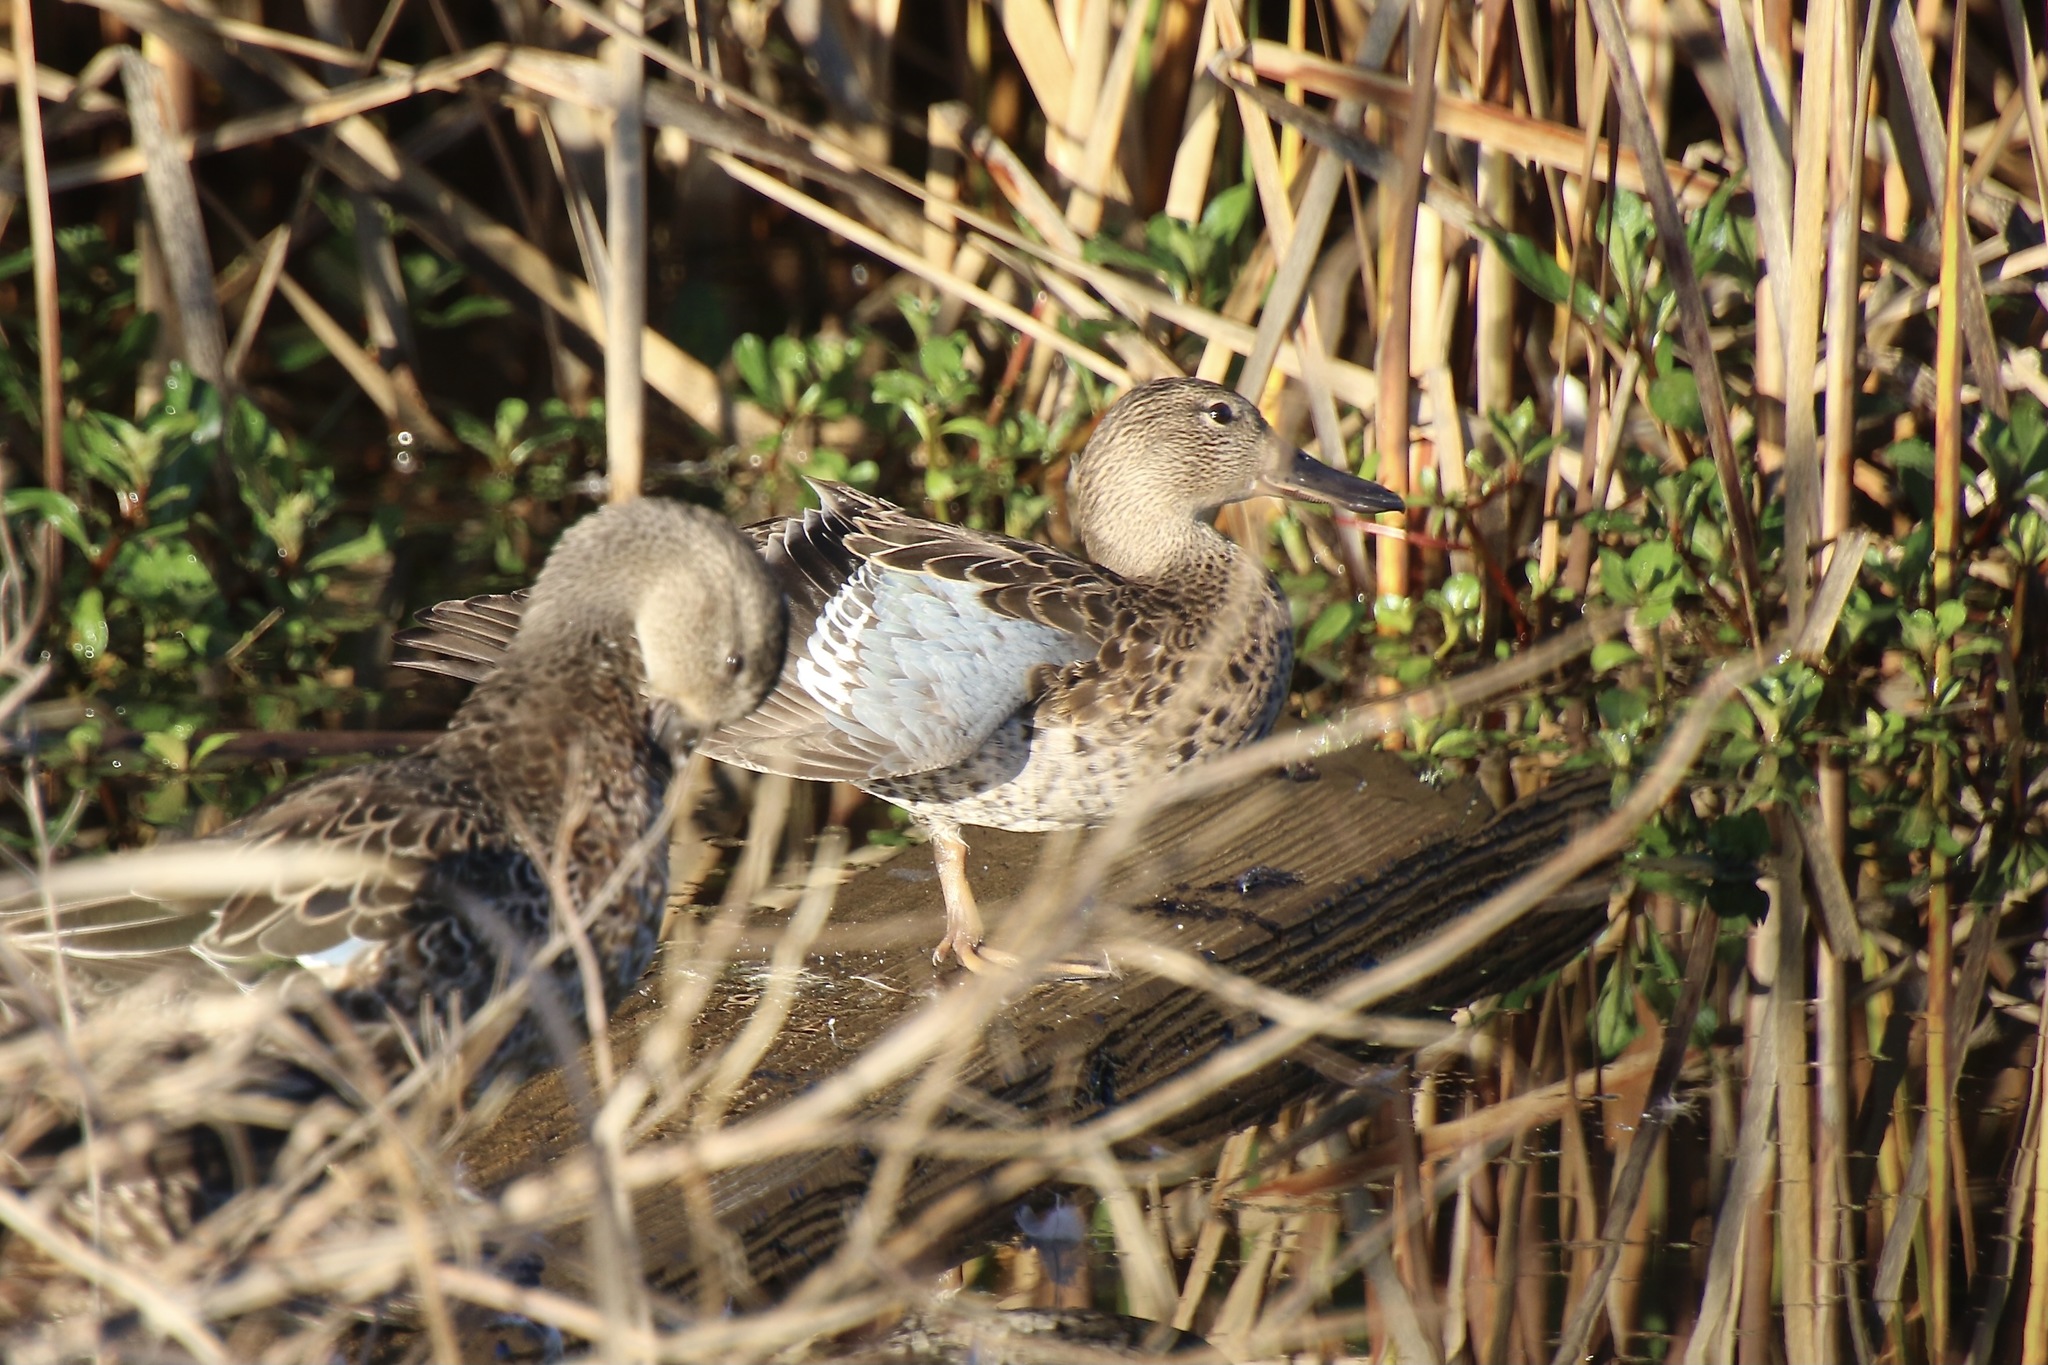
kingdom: Animalia
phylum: Chordata
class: Aves
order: Anseriformes
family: Anatidae
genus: Spatula
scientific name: Spatula discors
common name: Blue-winged teal
